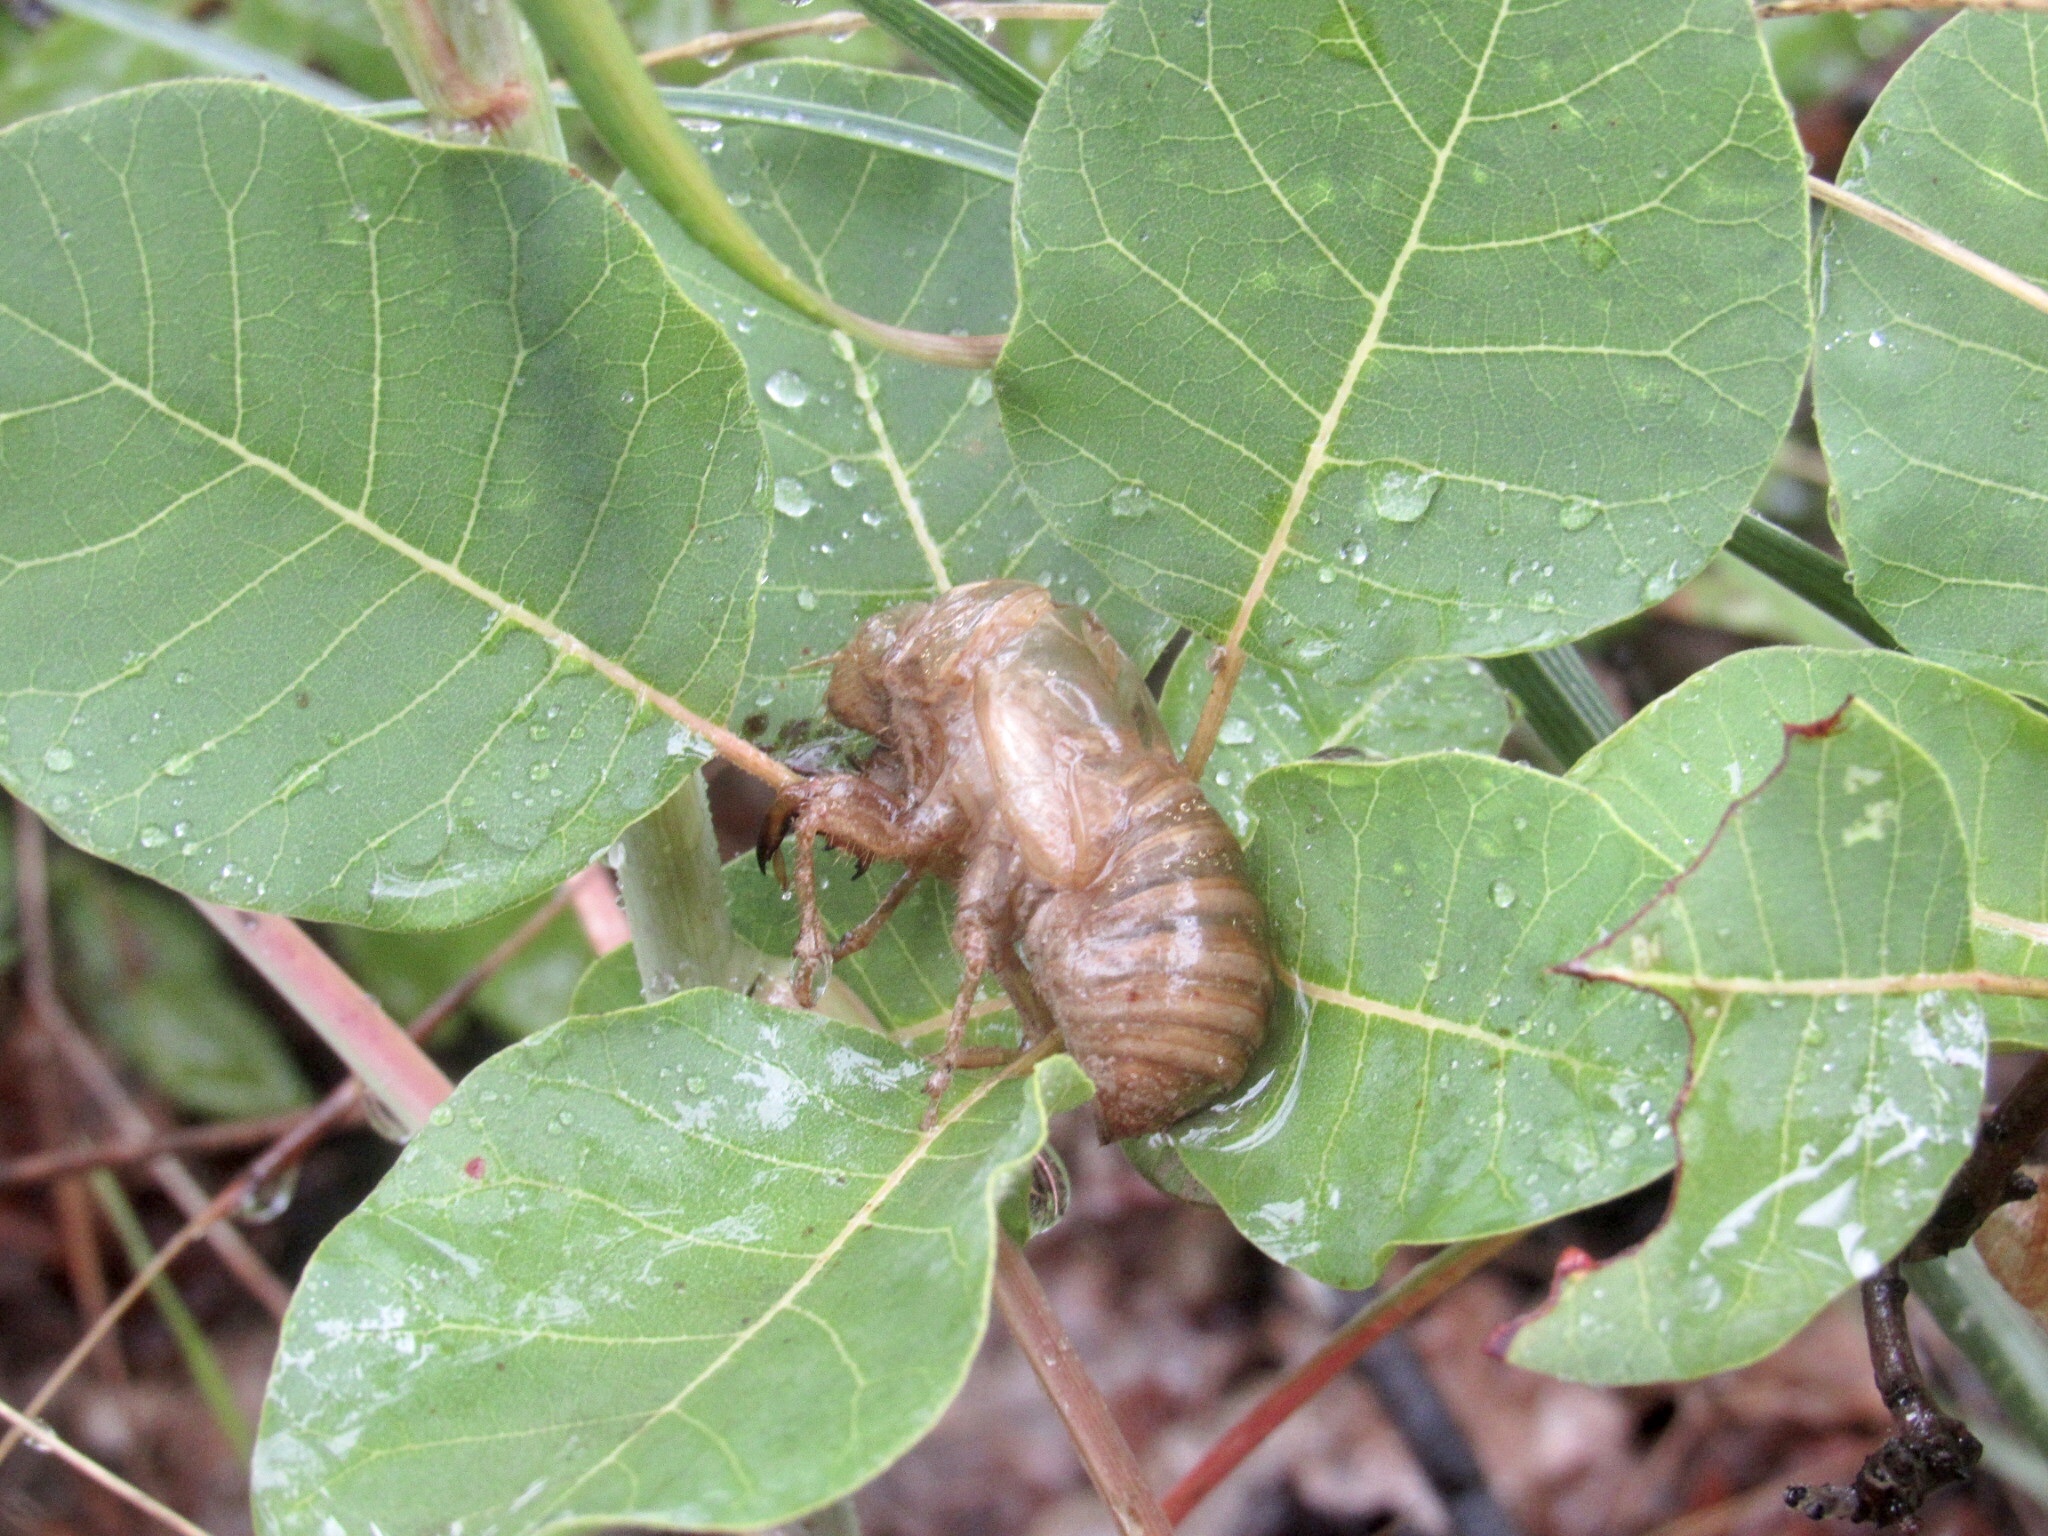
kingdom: Animalia
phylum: Arthropoda
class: Insecta
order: Hemiptera
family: Cicadidae
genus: Lyristes
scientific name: Lyristes plebejus
